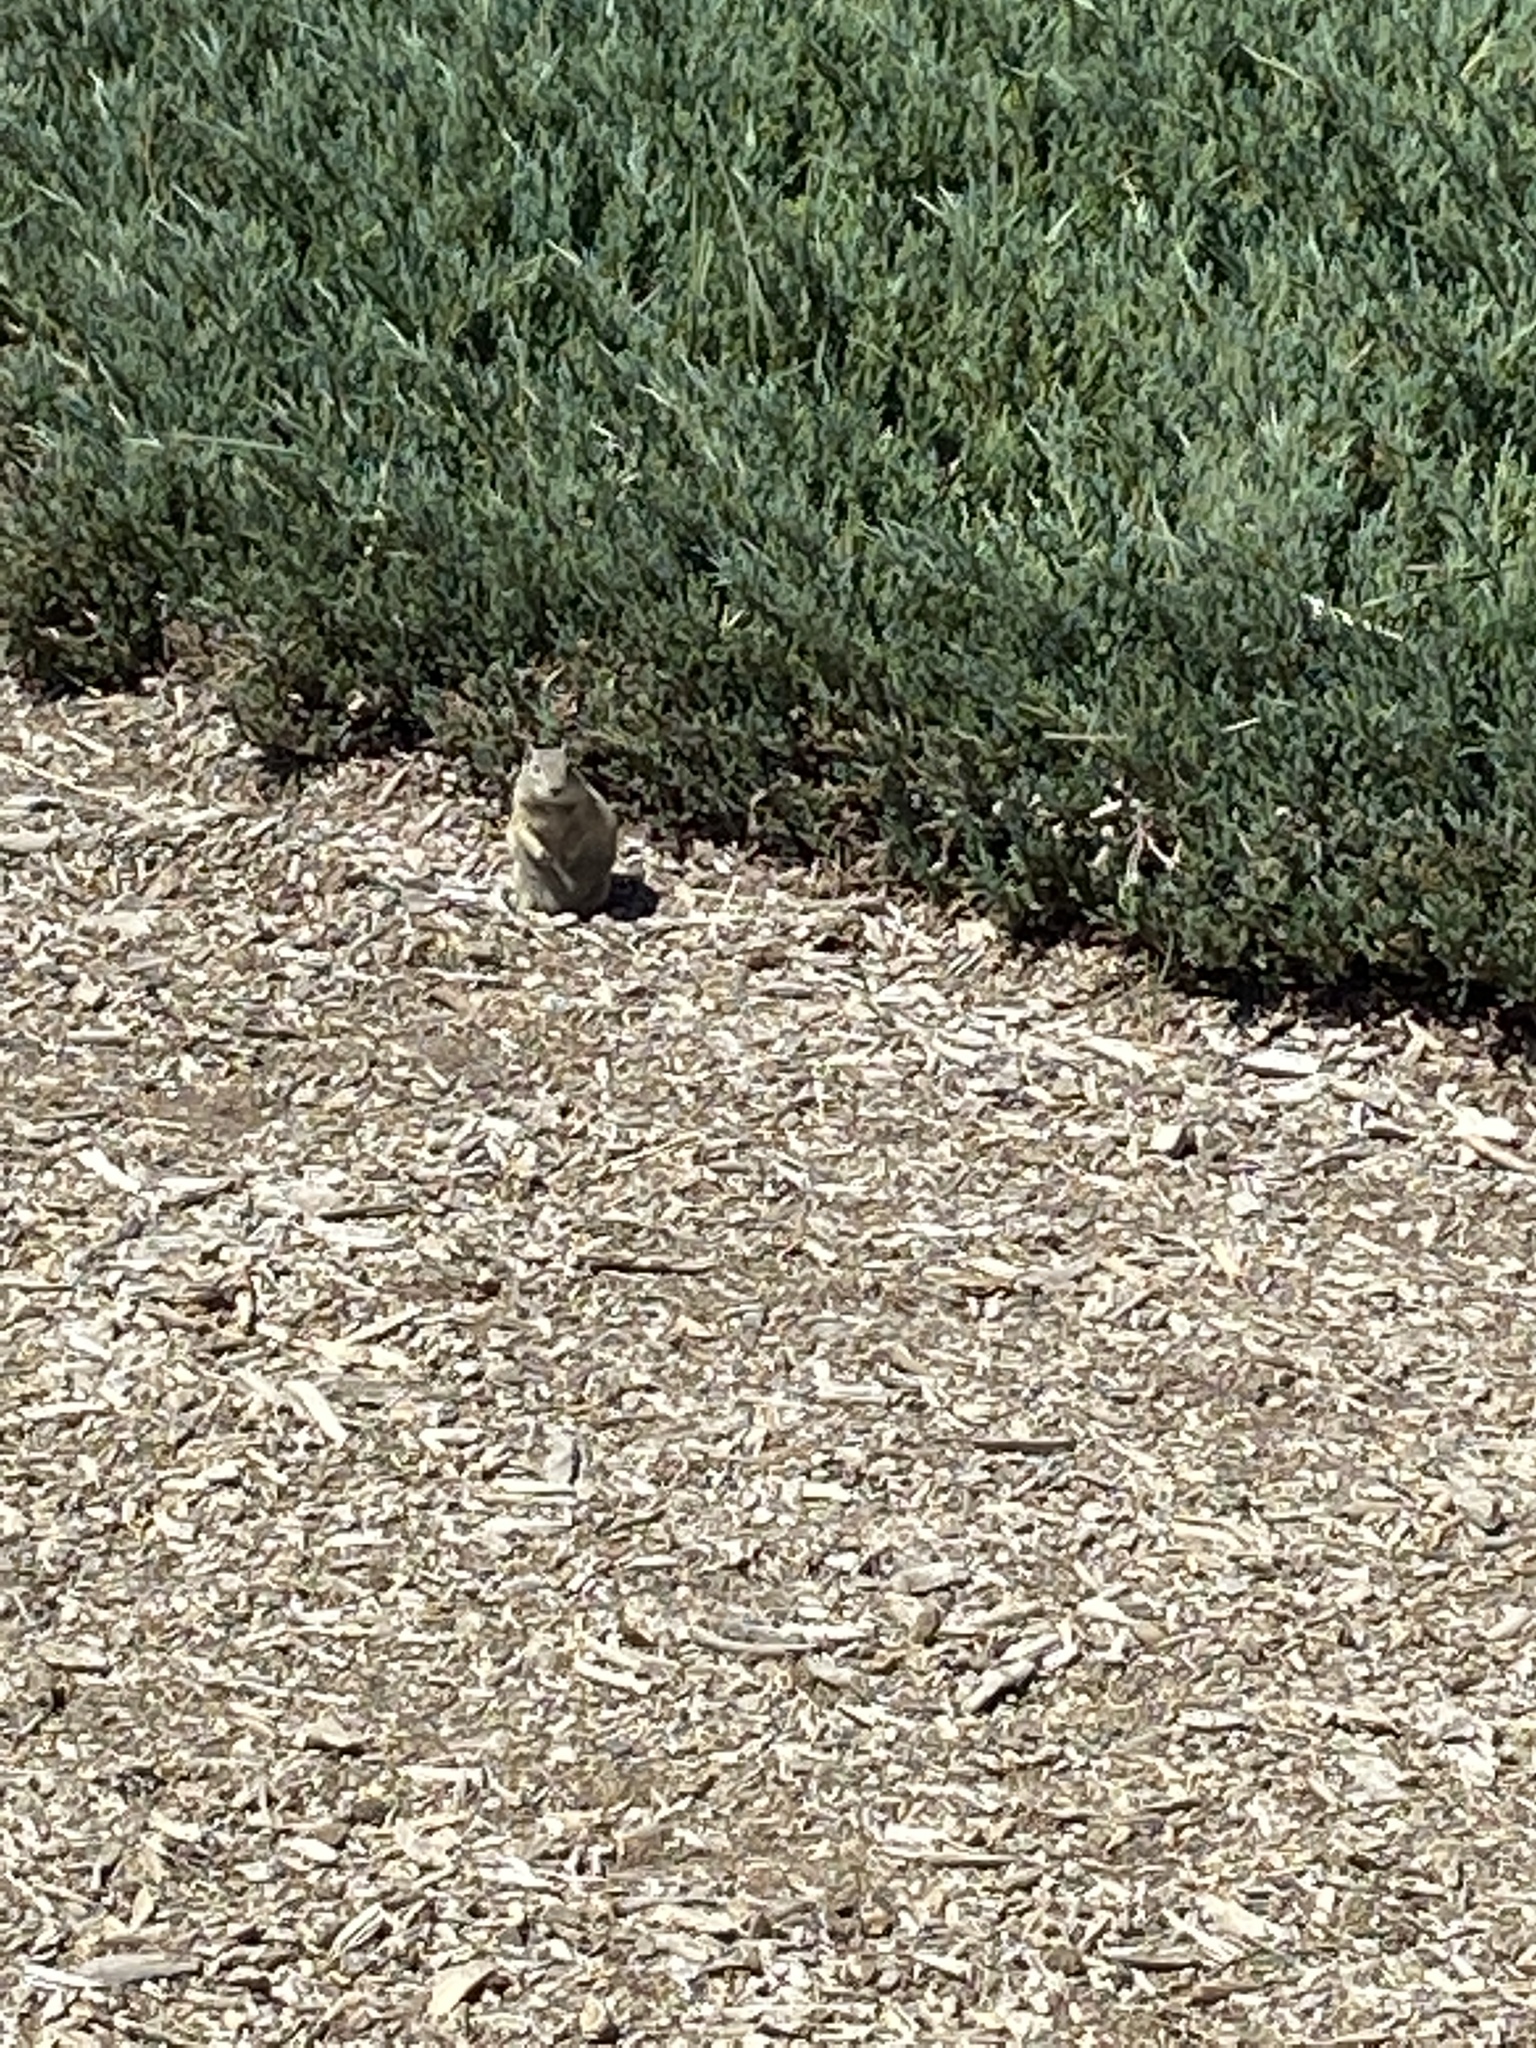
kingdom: Animalia
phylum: Chordata
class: Mammalia
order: Rodentia
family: Sciuridae
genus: Urocitellus
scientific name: Urocitellus beldingi
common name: Belding's ground squirrel
